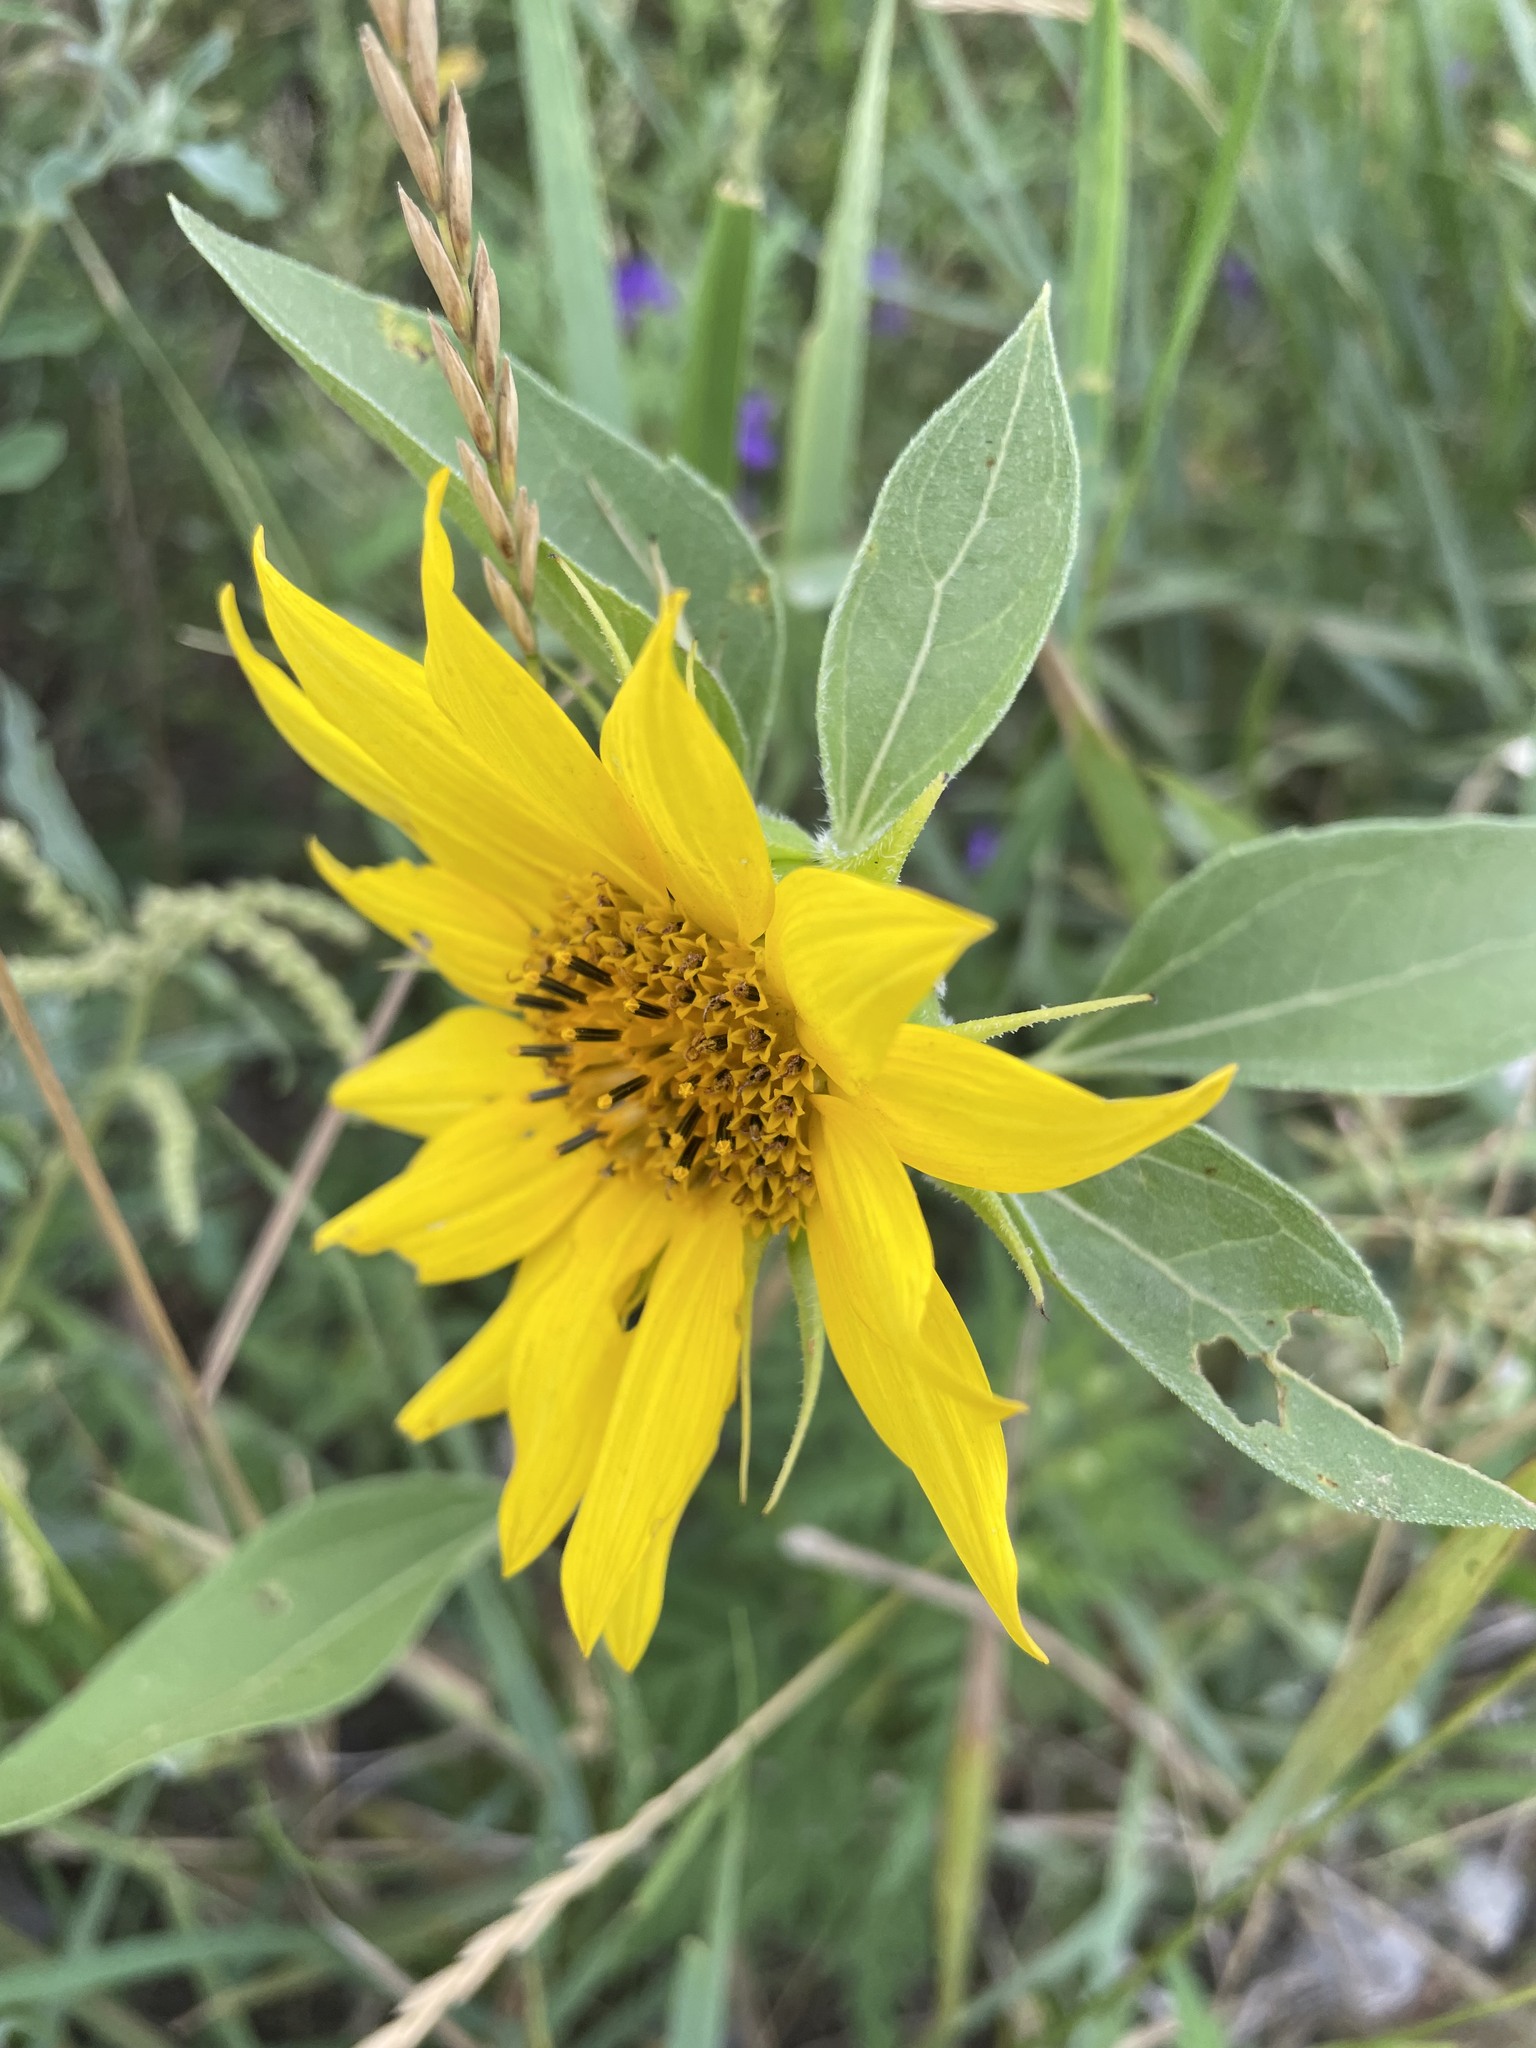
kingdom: Plantae
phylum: Tracheophyta
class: Magnoliopsida
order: Asterales
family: Asteraceae
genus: Helianthus
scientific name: Helianthus tuberosus
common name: Jerusalem artichoke
